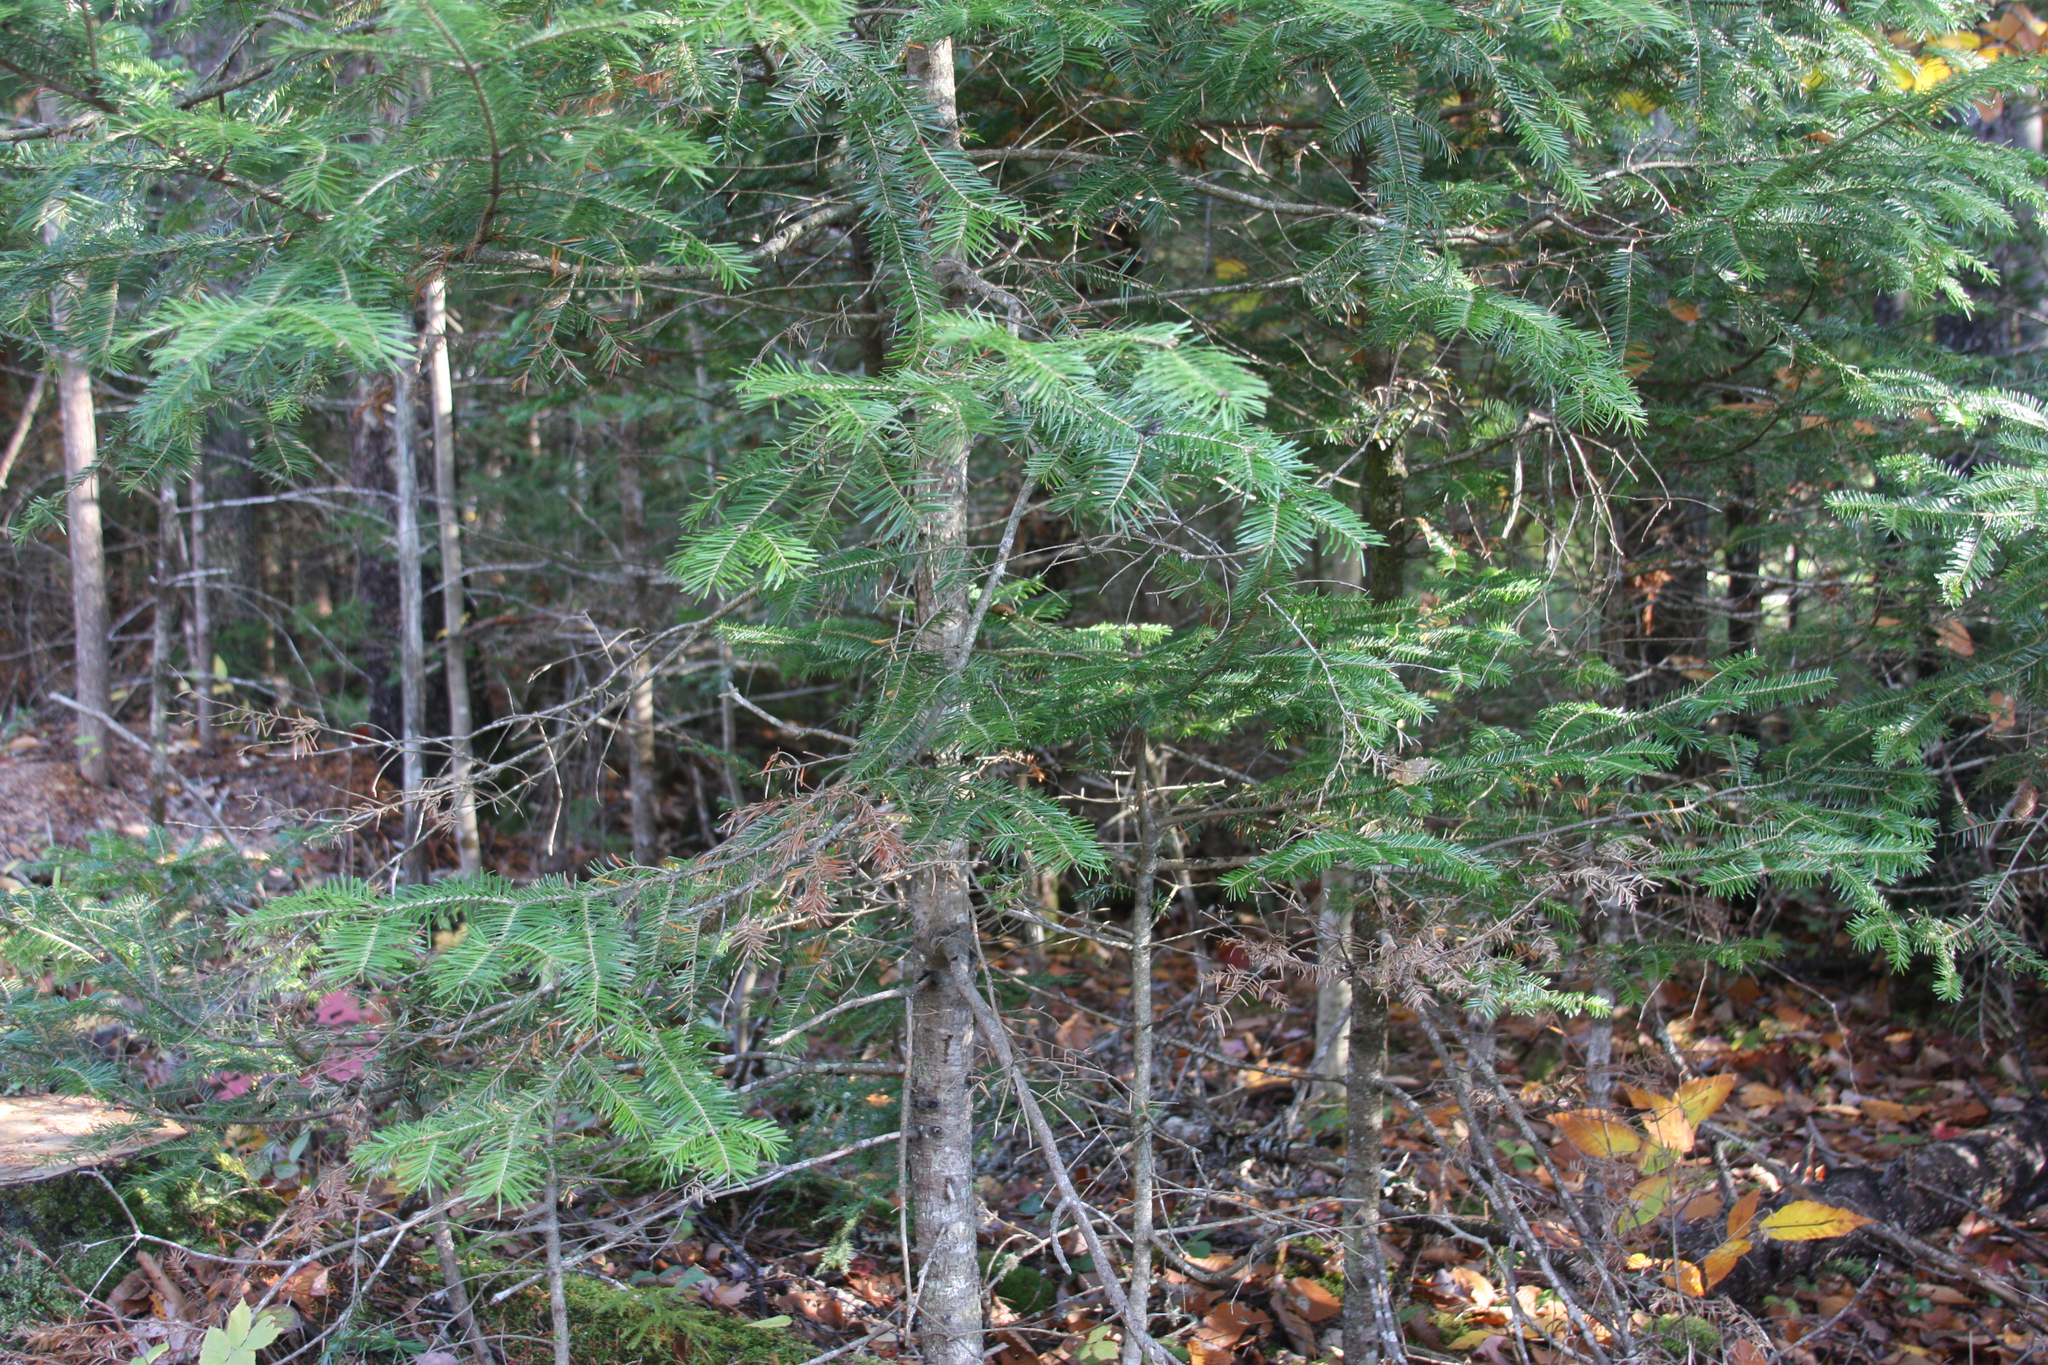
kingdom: Plantae
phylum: Tracheophyta
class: Pinopsida
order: Pinales
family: Pinaceae
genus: Abies
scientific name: Abies balsamea
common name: Balsam fir
